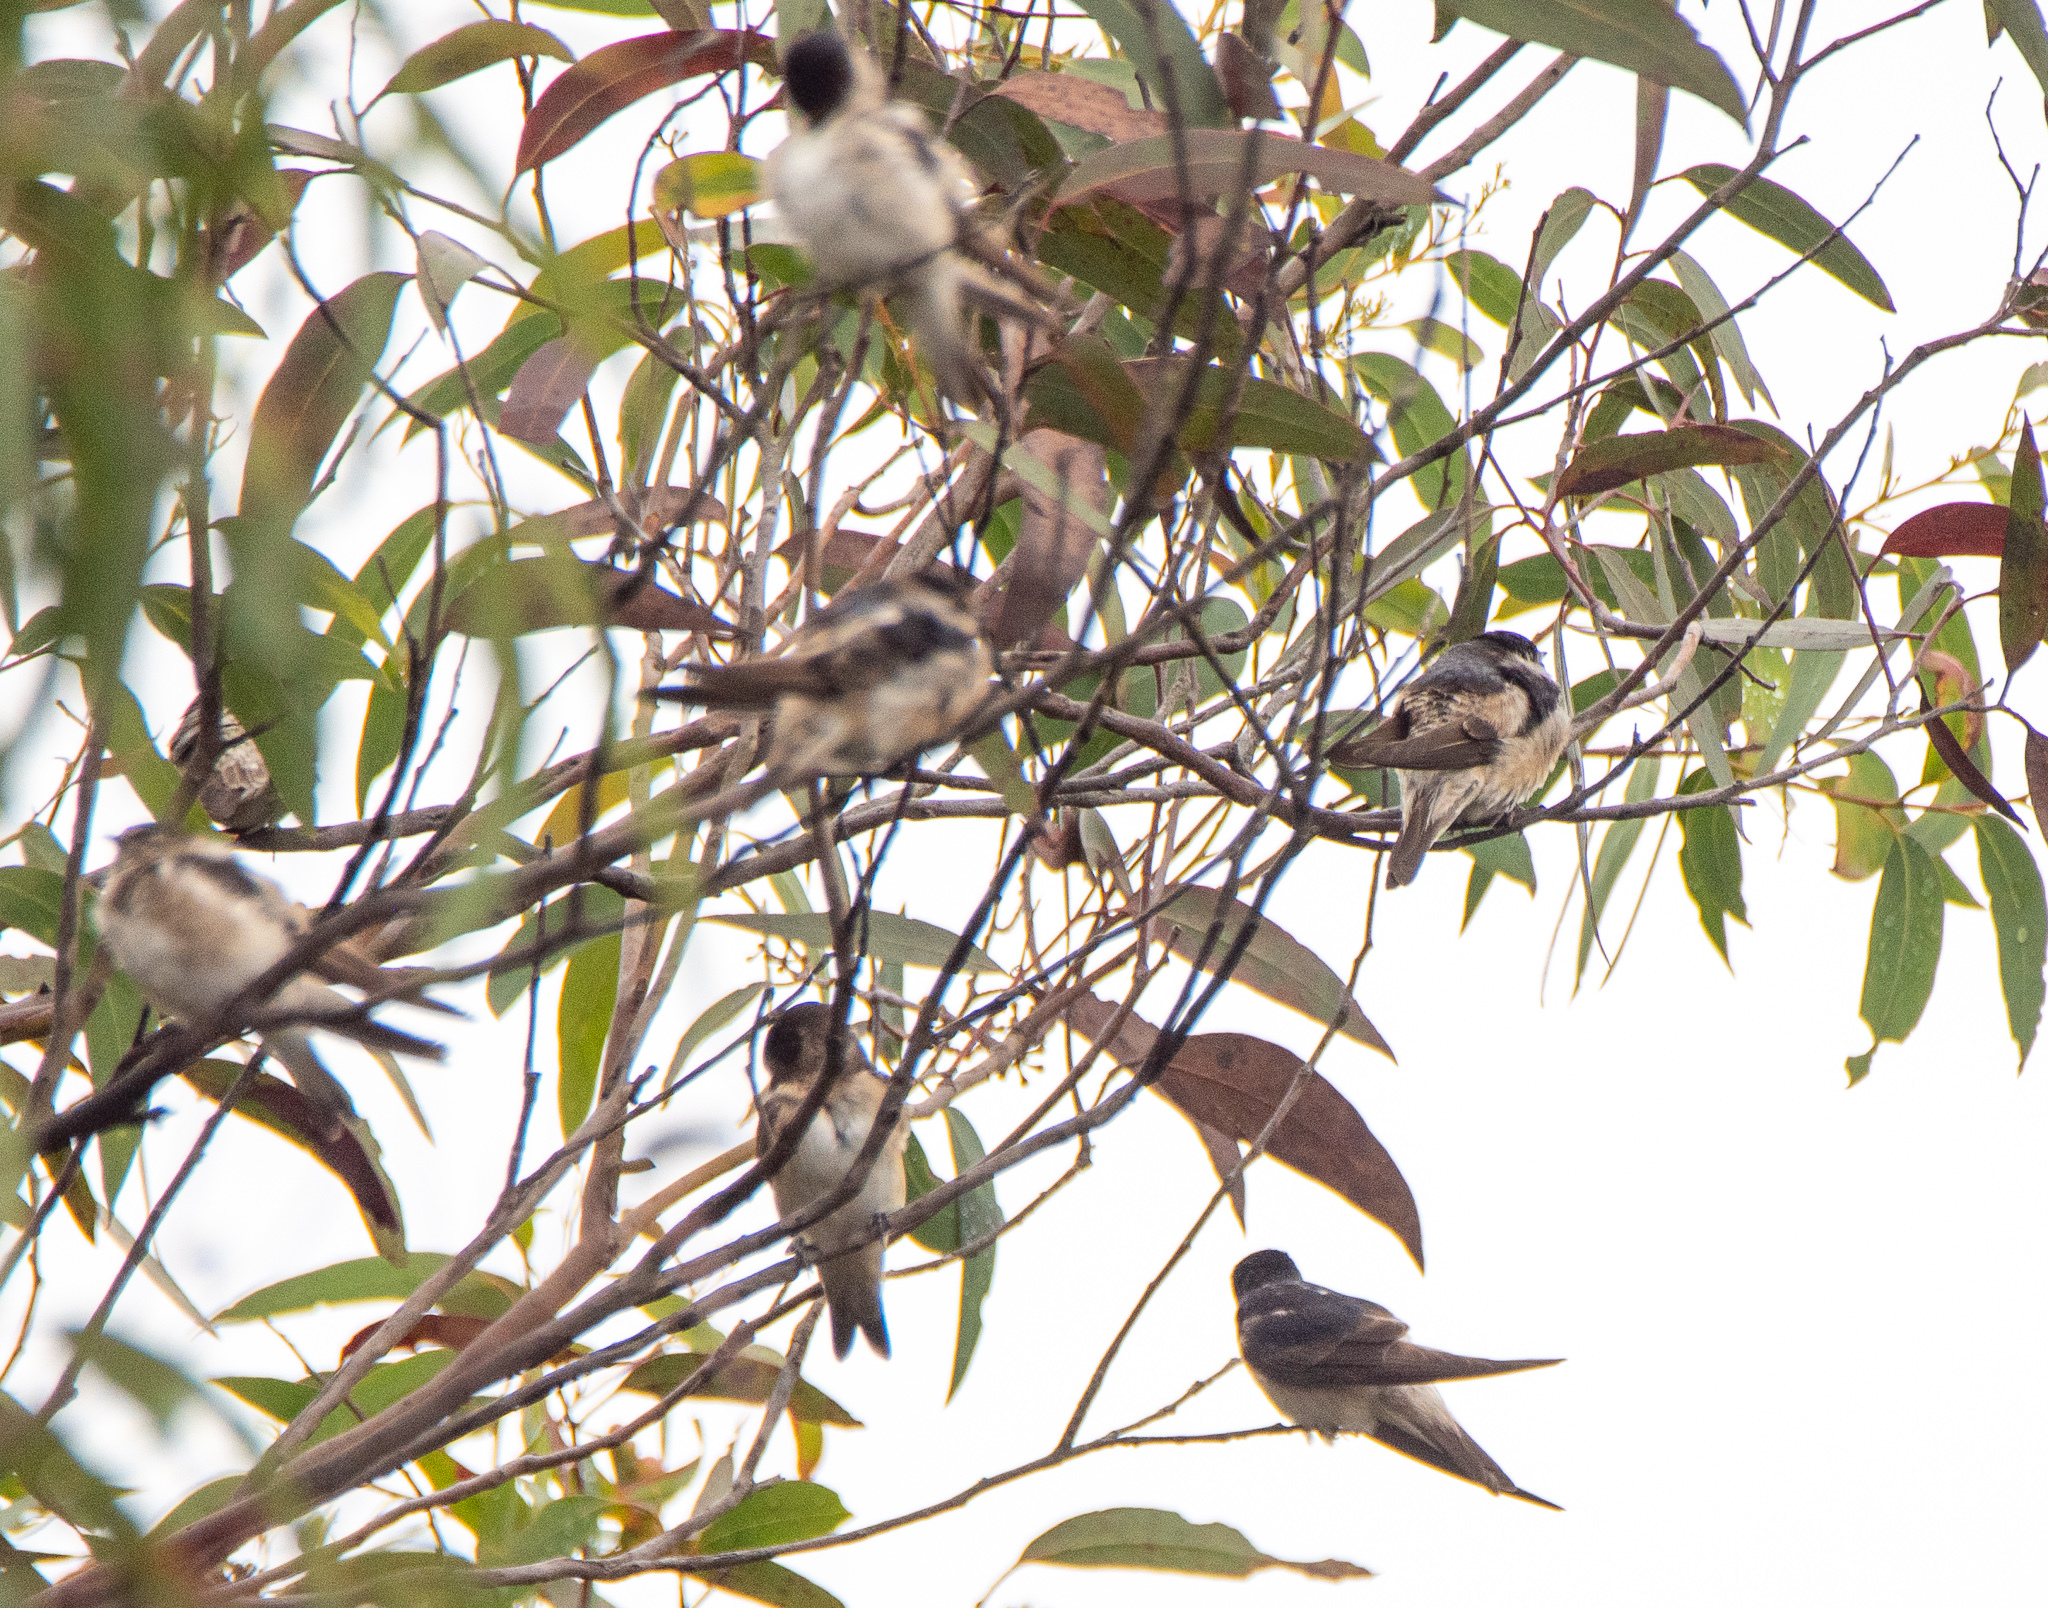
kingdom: Animalia
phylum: Chordata
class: Aves
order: Passeriformes
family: Hirundinidae
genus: Petrochelidon
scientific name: Petrochelidon nigricans
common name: Tree martin
